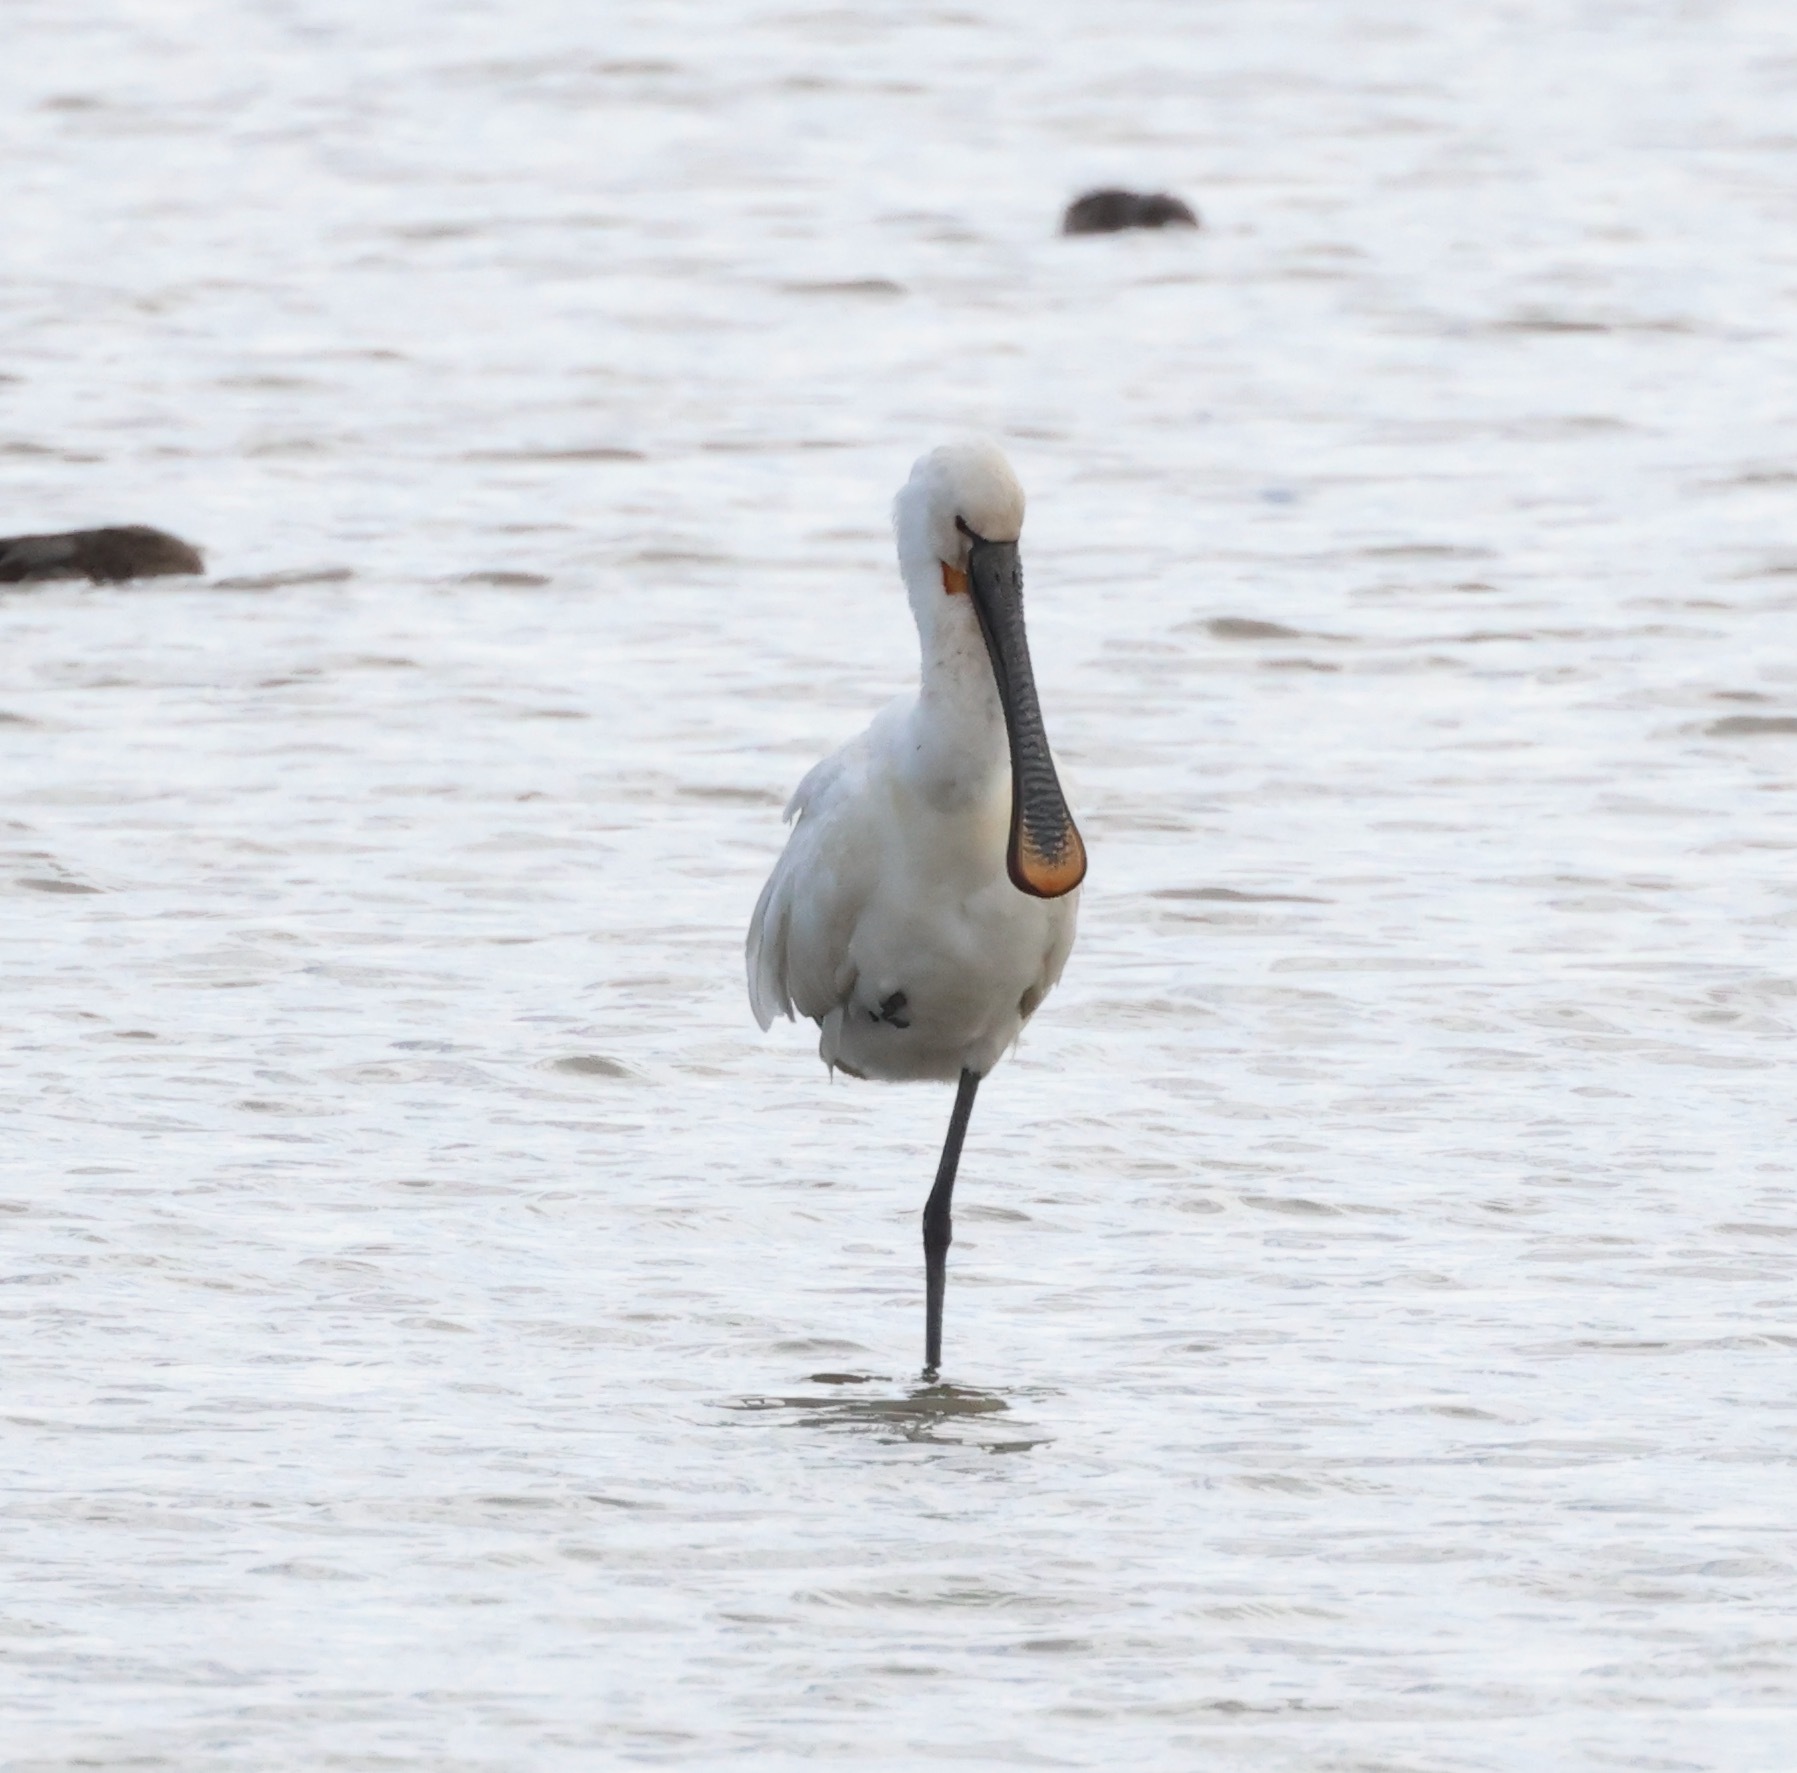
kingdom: Animalia
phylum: Chordata
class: Aves
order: Pelecaniformes
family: Threskiornithidae
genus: Platalea
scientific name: Platalea leucorodia
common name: Eurasian spoonbill
